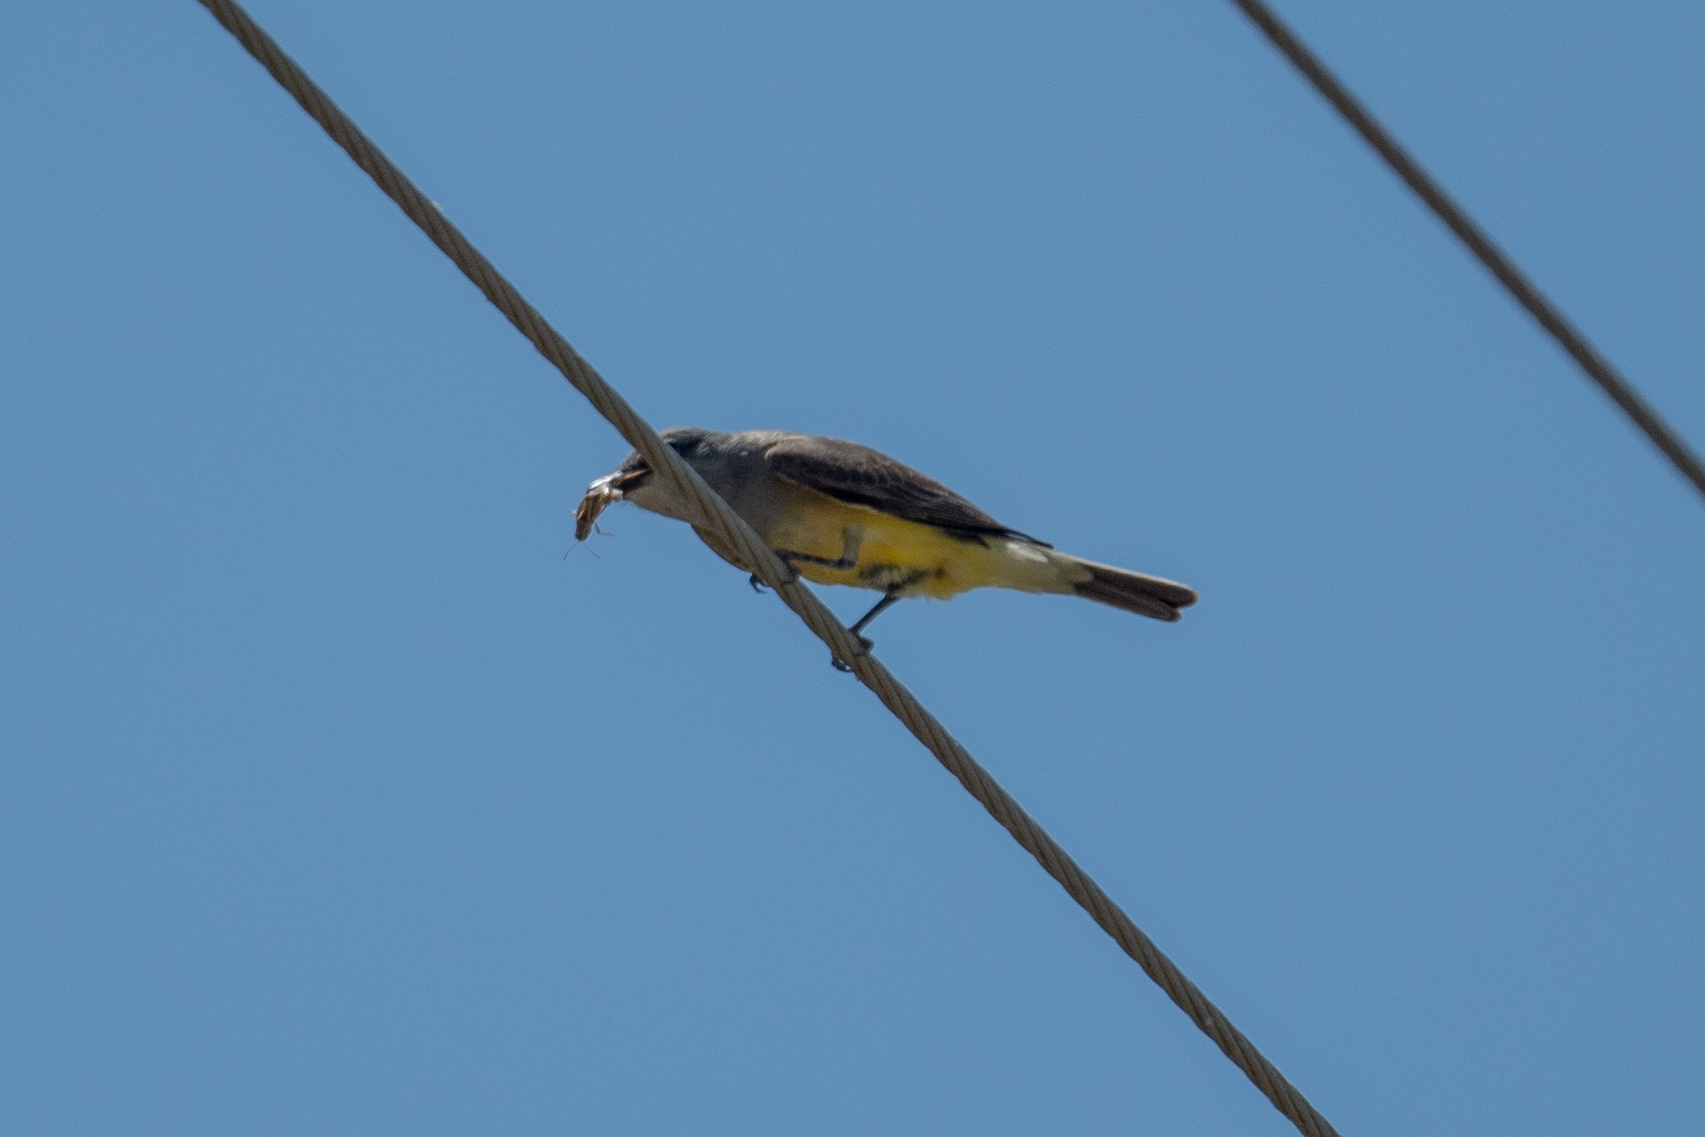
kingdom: Animalia
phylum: Chordata
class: Aves
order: Passeriformes
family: Tyrannidae
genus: Tyrannus
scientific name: Tyrannus verticalis
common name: Western kingbird
